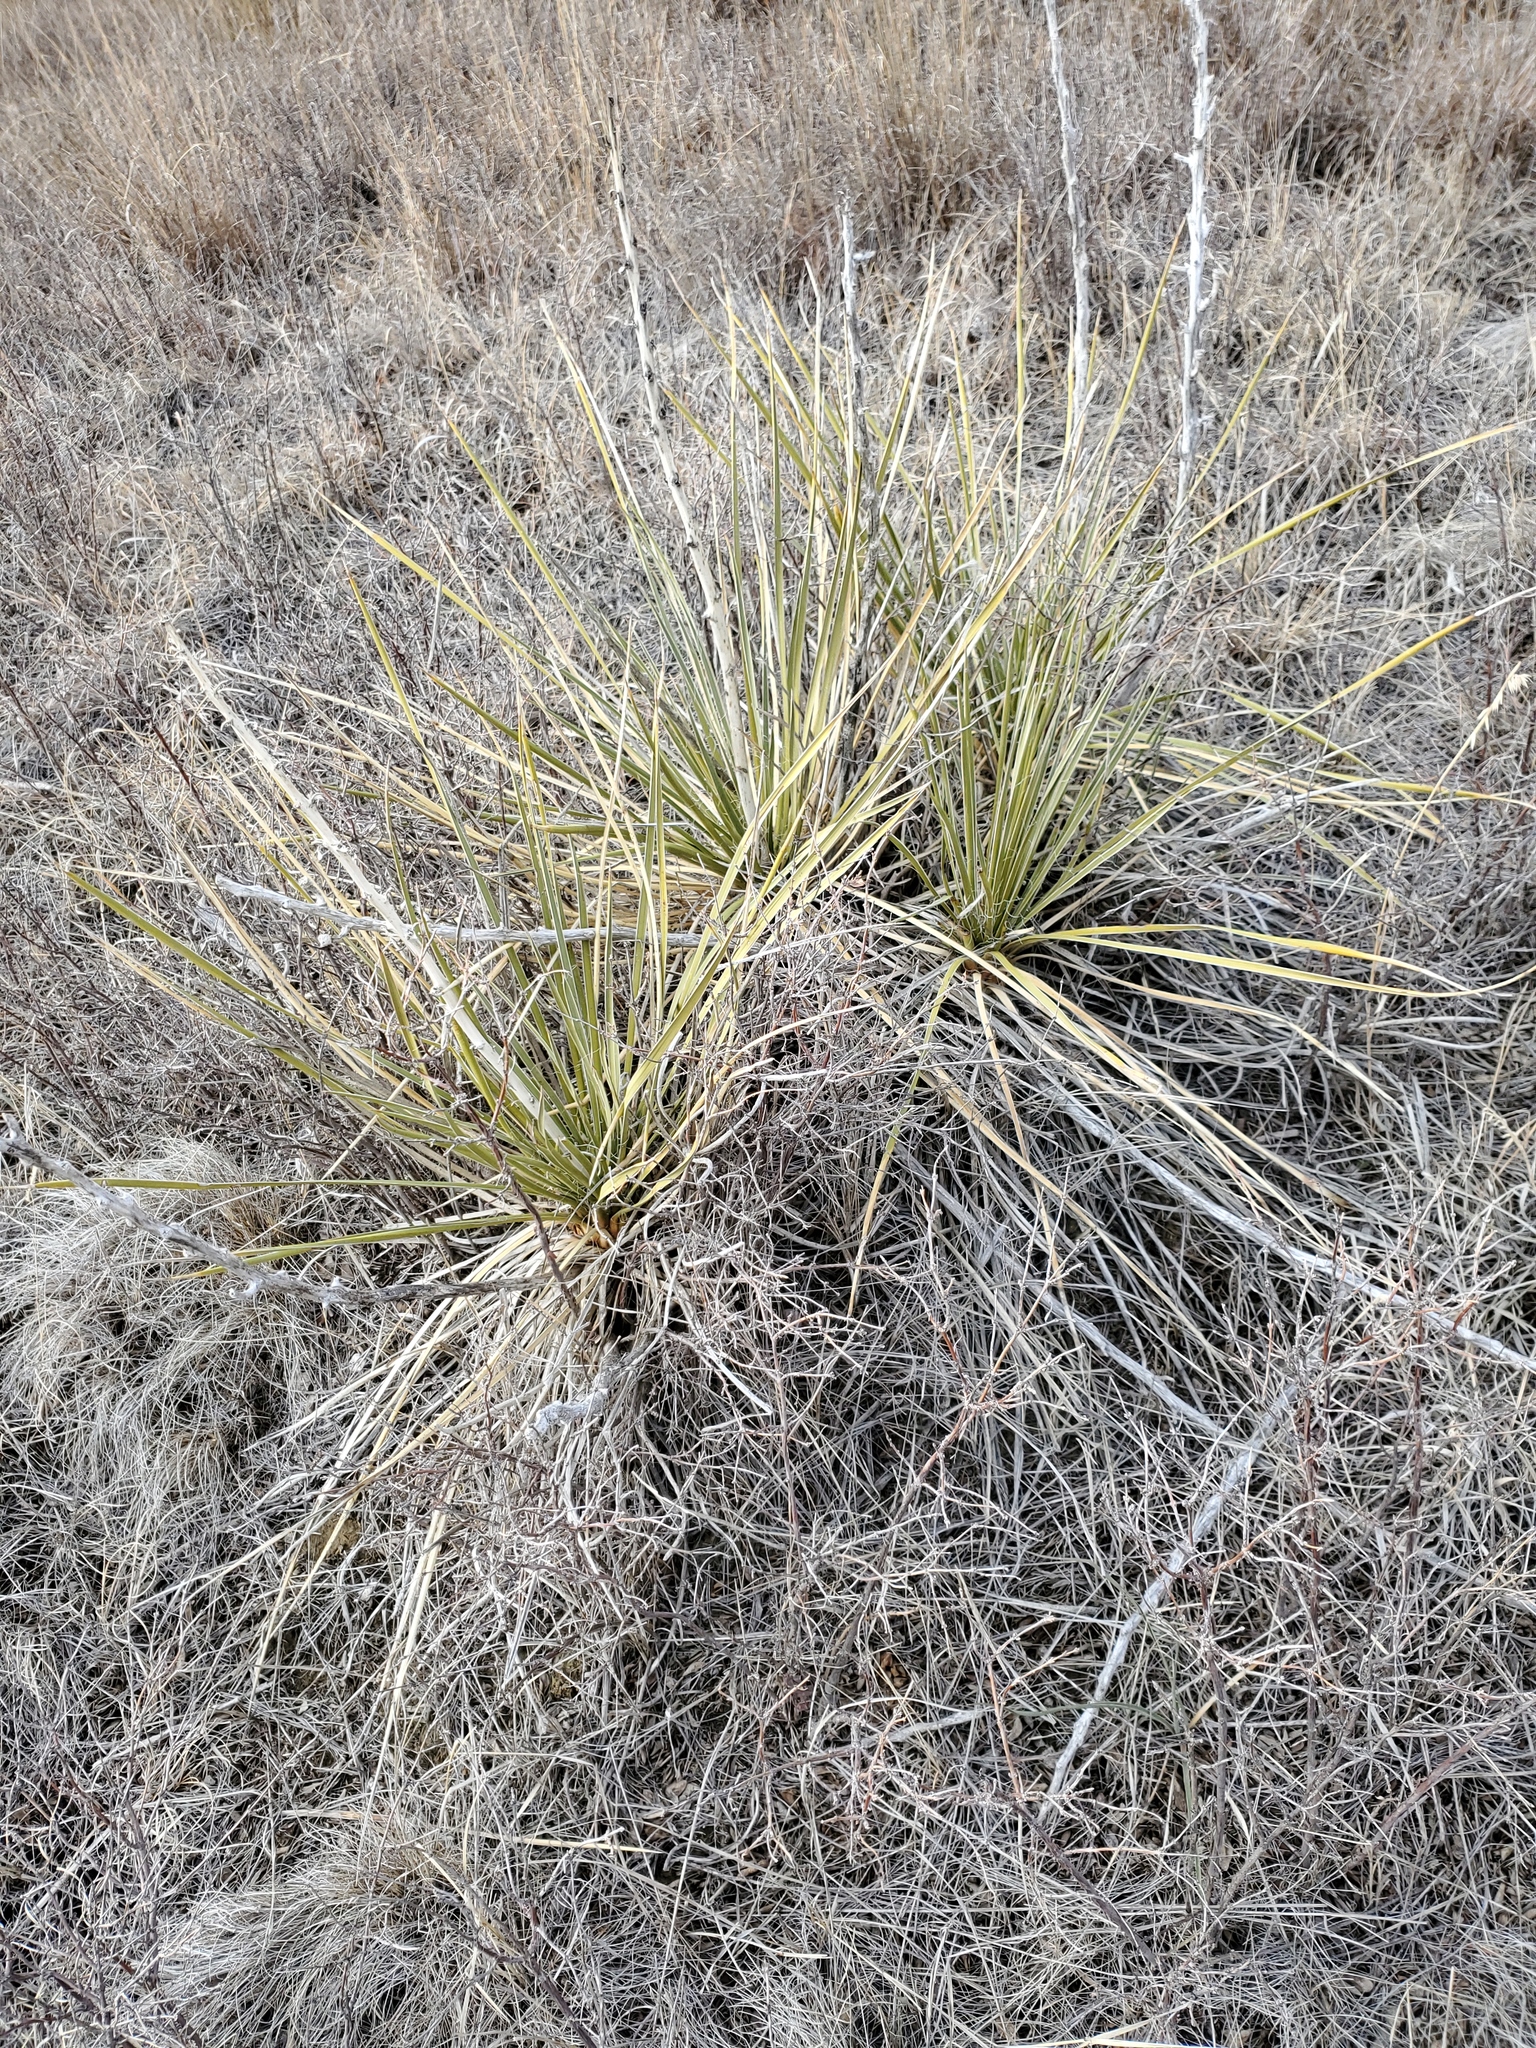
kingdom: Plantae
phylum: Tracheophyta
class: Liliopsida
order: Asparagales
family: Asparagaceae
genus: Yucca
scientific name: Yucca glauca
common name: Great plains yucca
